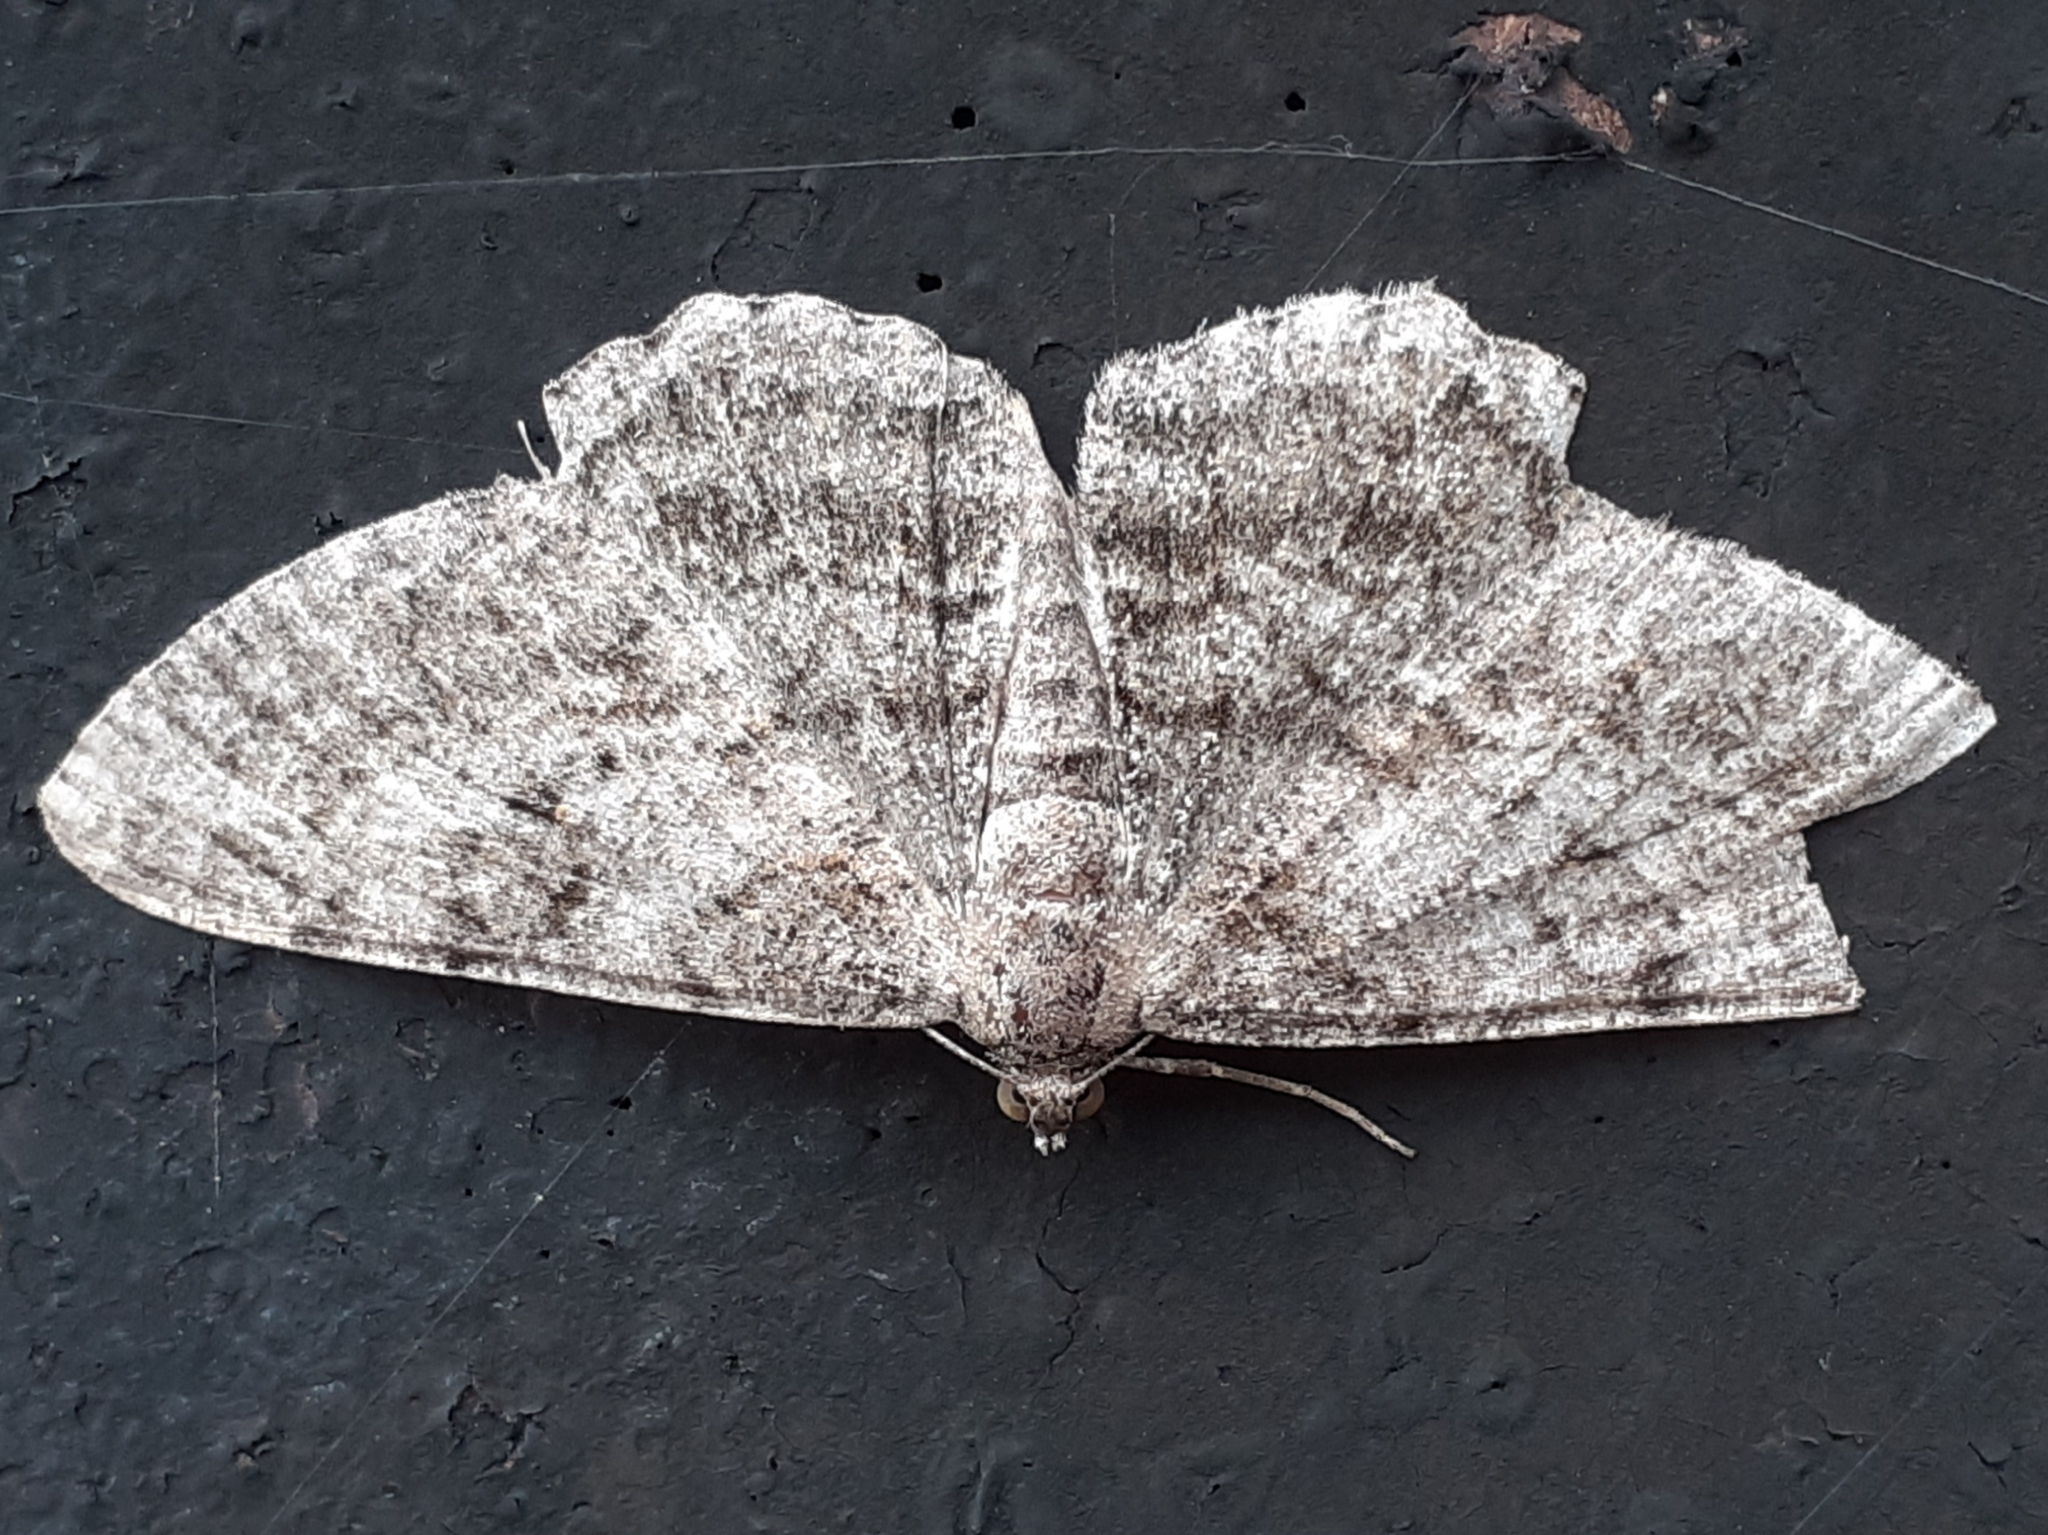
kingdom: Animalia
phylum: Arthropoda
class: Insecta
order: Lepidoptera
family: Geometridae
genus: Peribatodes
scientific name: Peribatodes rhomboidaria
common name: Willow beauty
